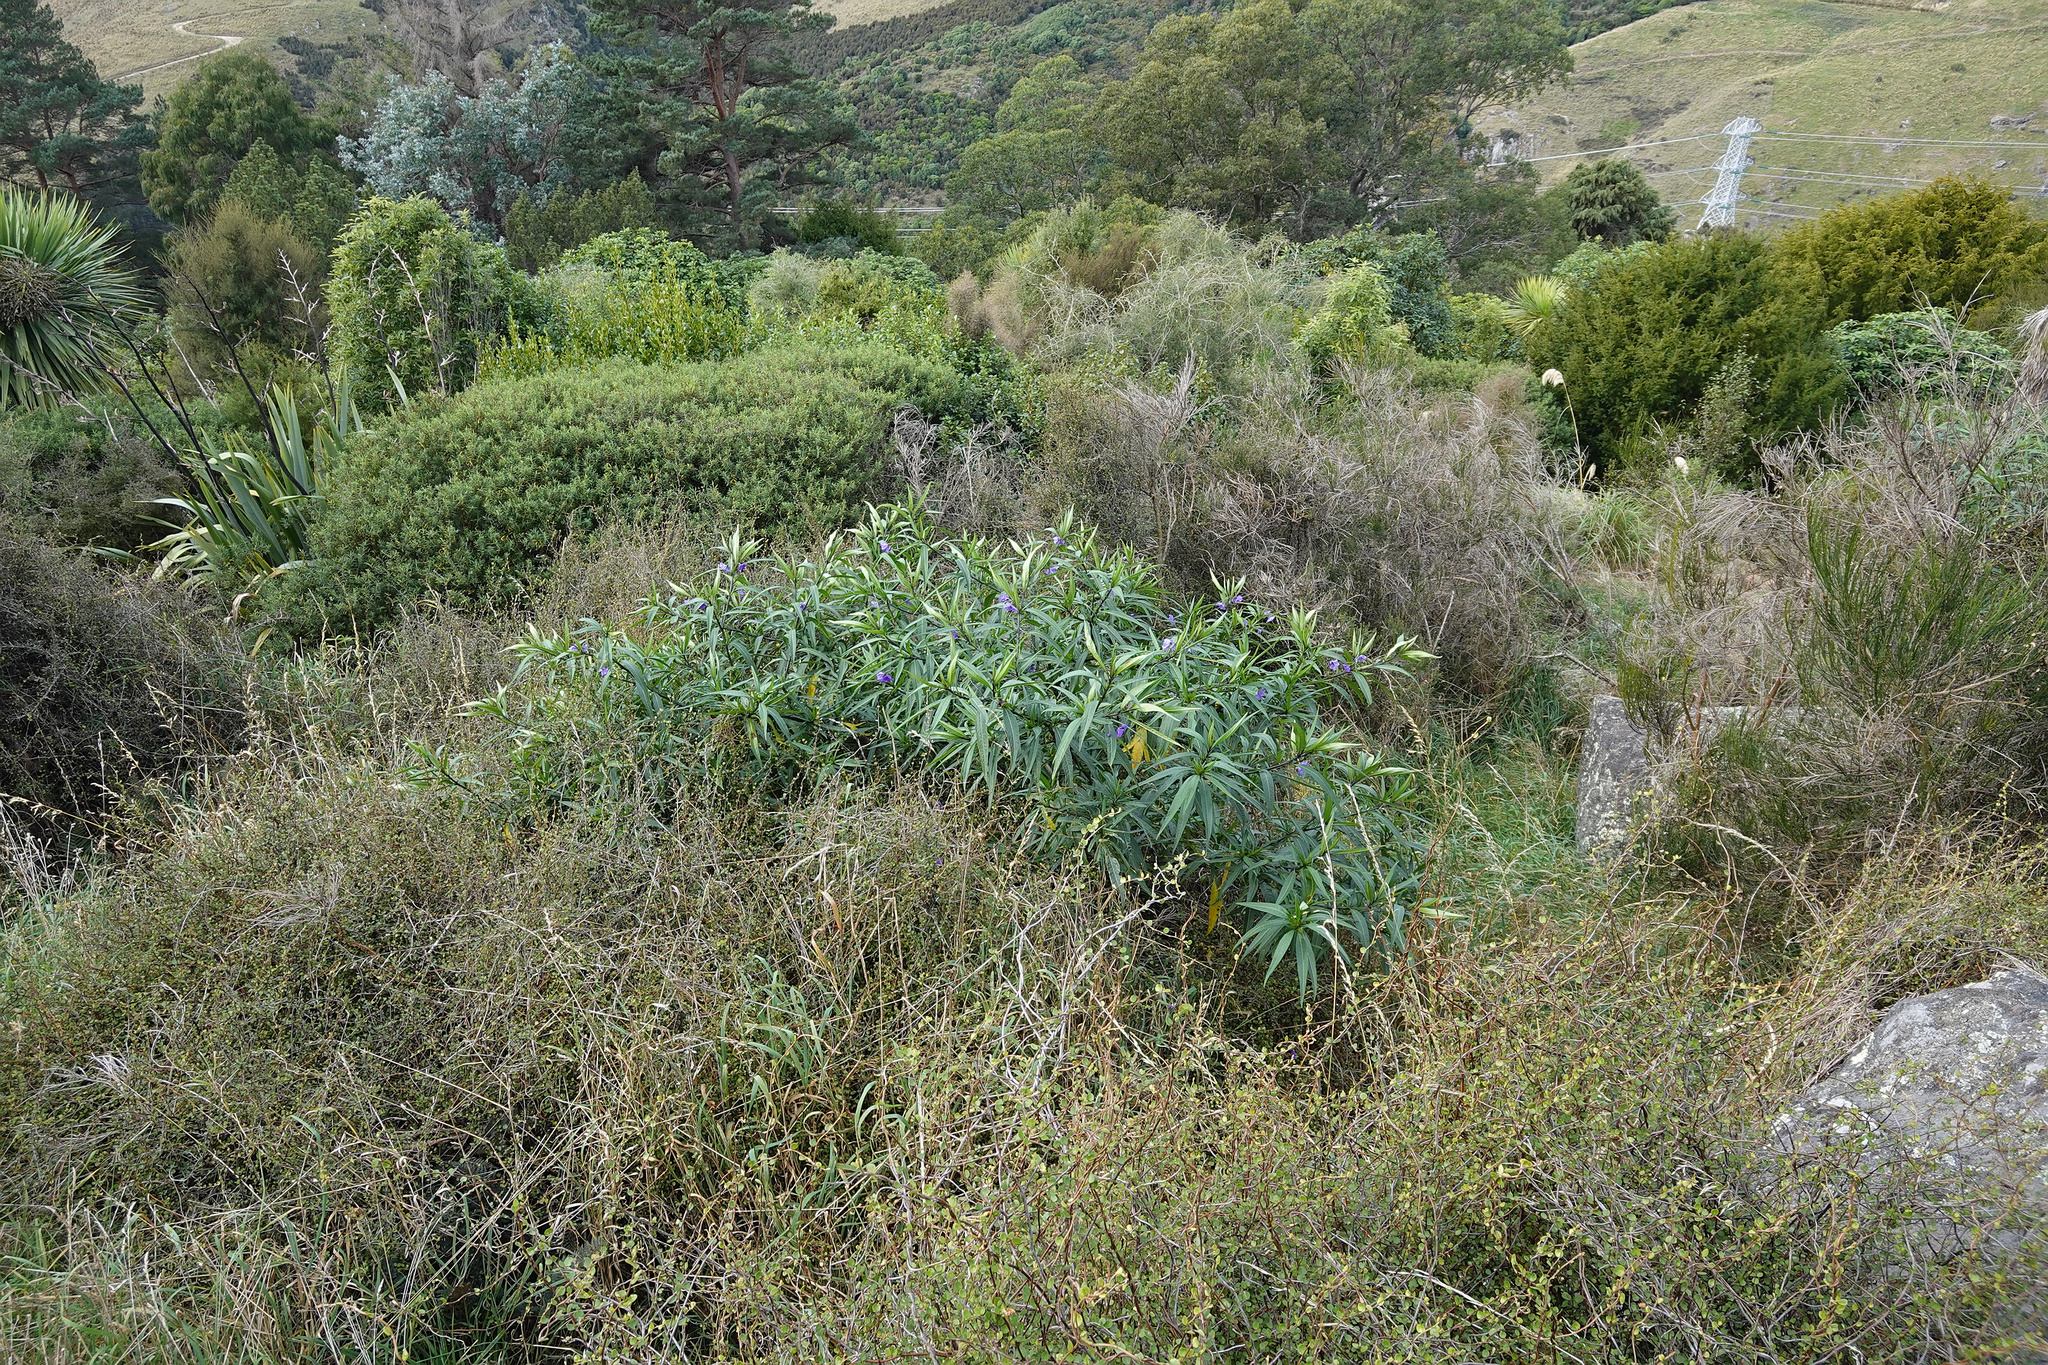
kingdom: Plantae
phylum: Tracheophyta
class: Magnoliopsida
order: Solanales
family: Solanaceae
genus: Solanum
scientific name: Solanum laciniatum
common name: Kangaroo-apple
